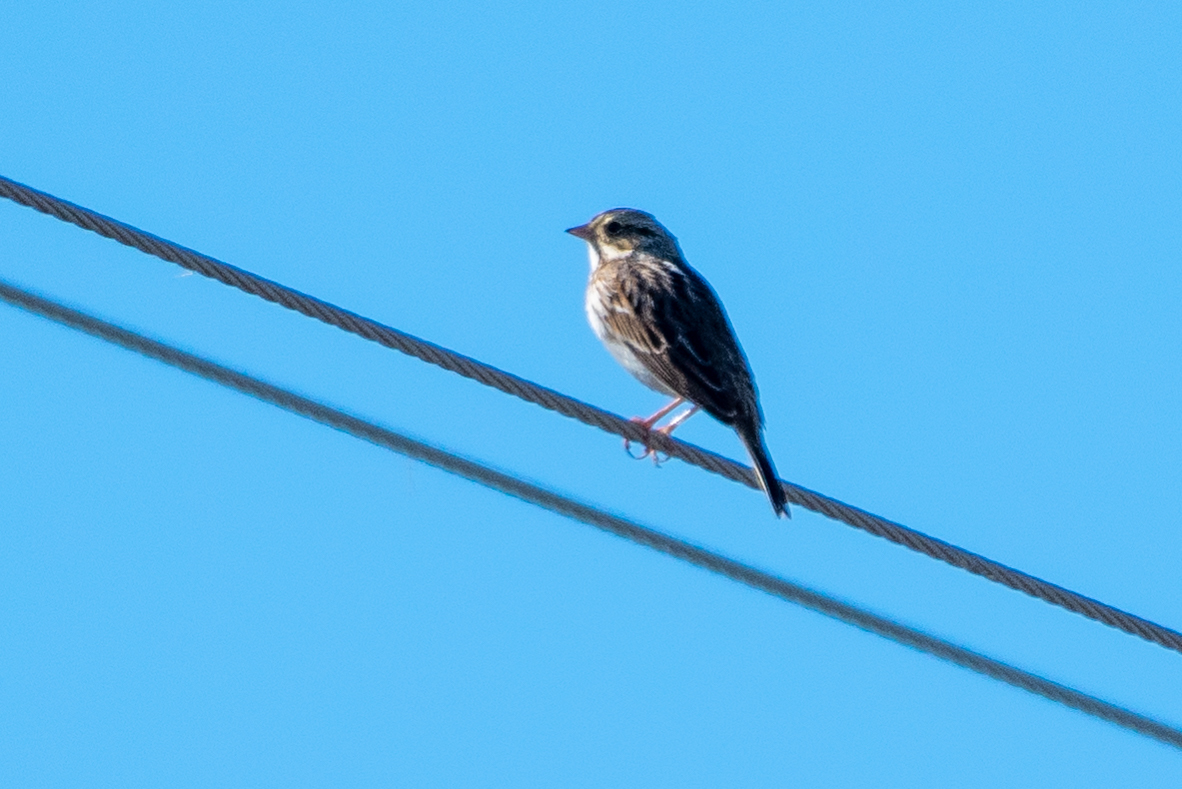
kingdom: Animalia
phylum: Chordata
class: Aves
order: Passeriformes
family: Passerellidae
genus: Passerculus
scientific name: Passerculus sandwichensis
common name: Savannah sparrow
